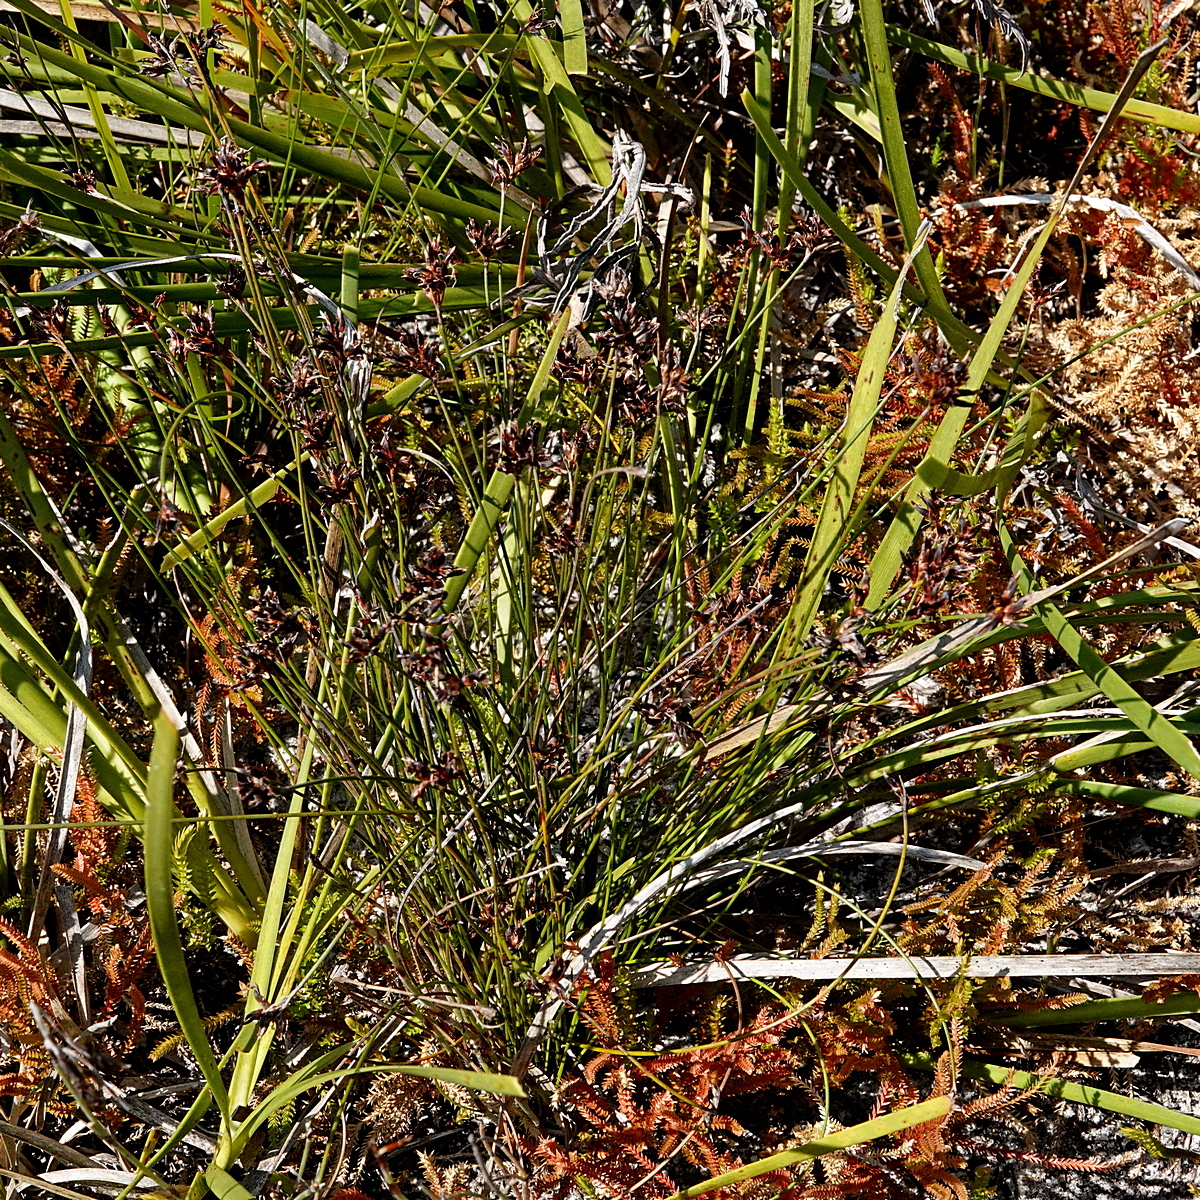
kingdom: Plantae
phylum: Tracheophyta
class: Liliopsida
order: Poales
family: Cyperaceae
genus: Schoenus
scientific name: Schoenus imberbis
